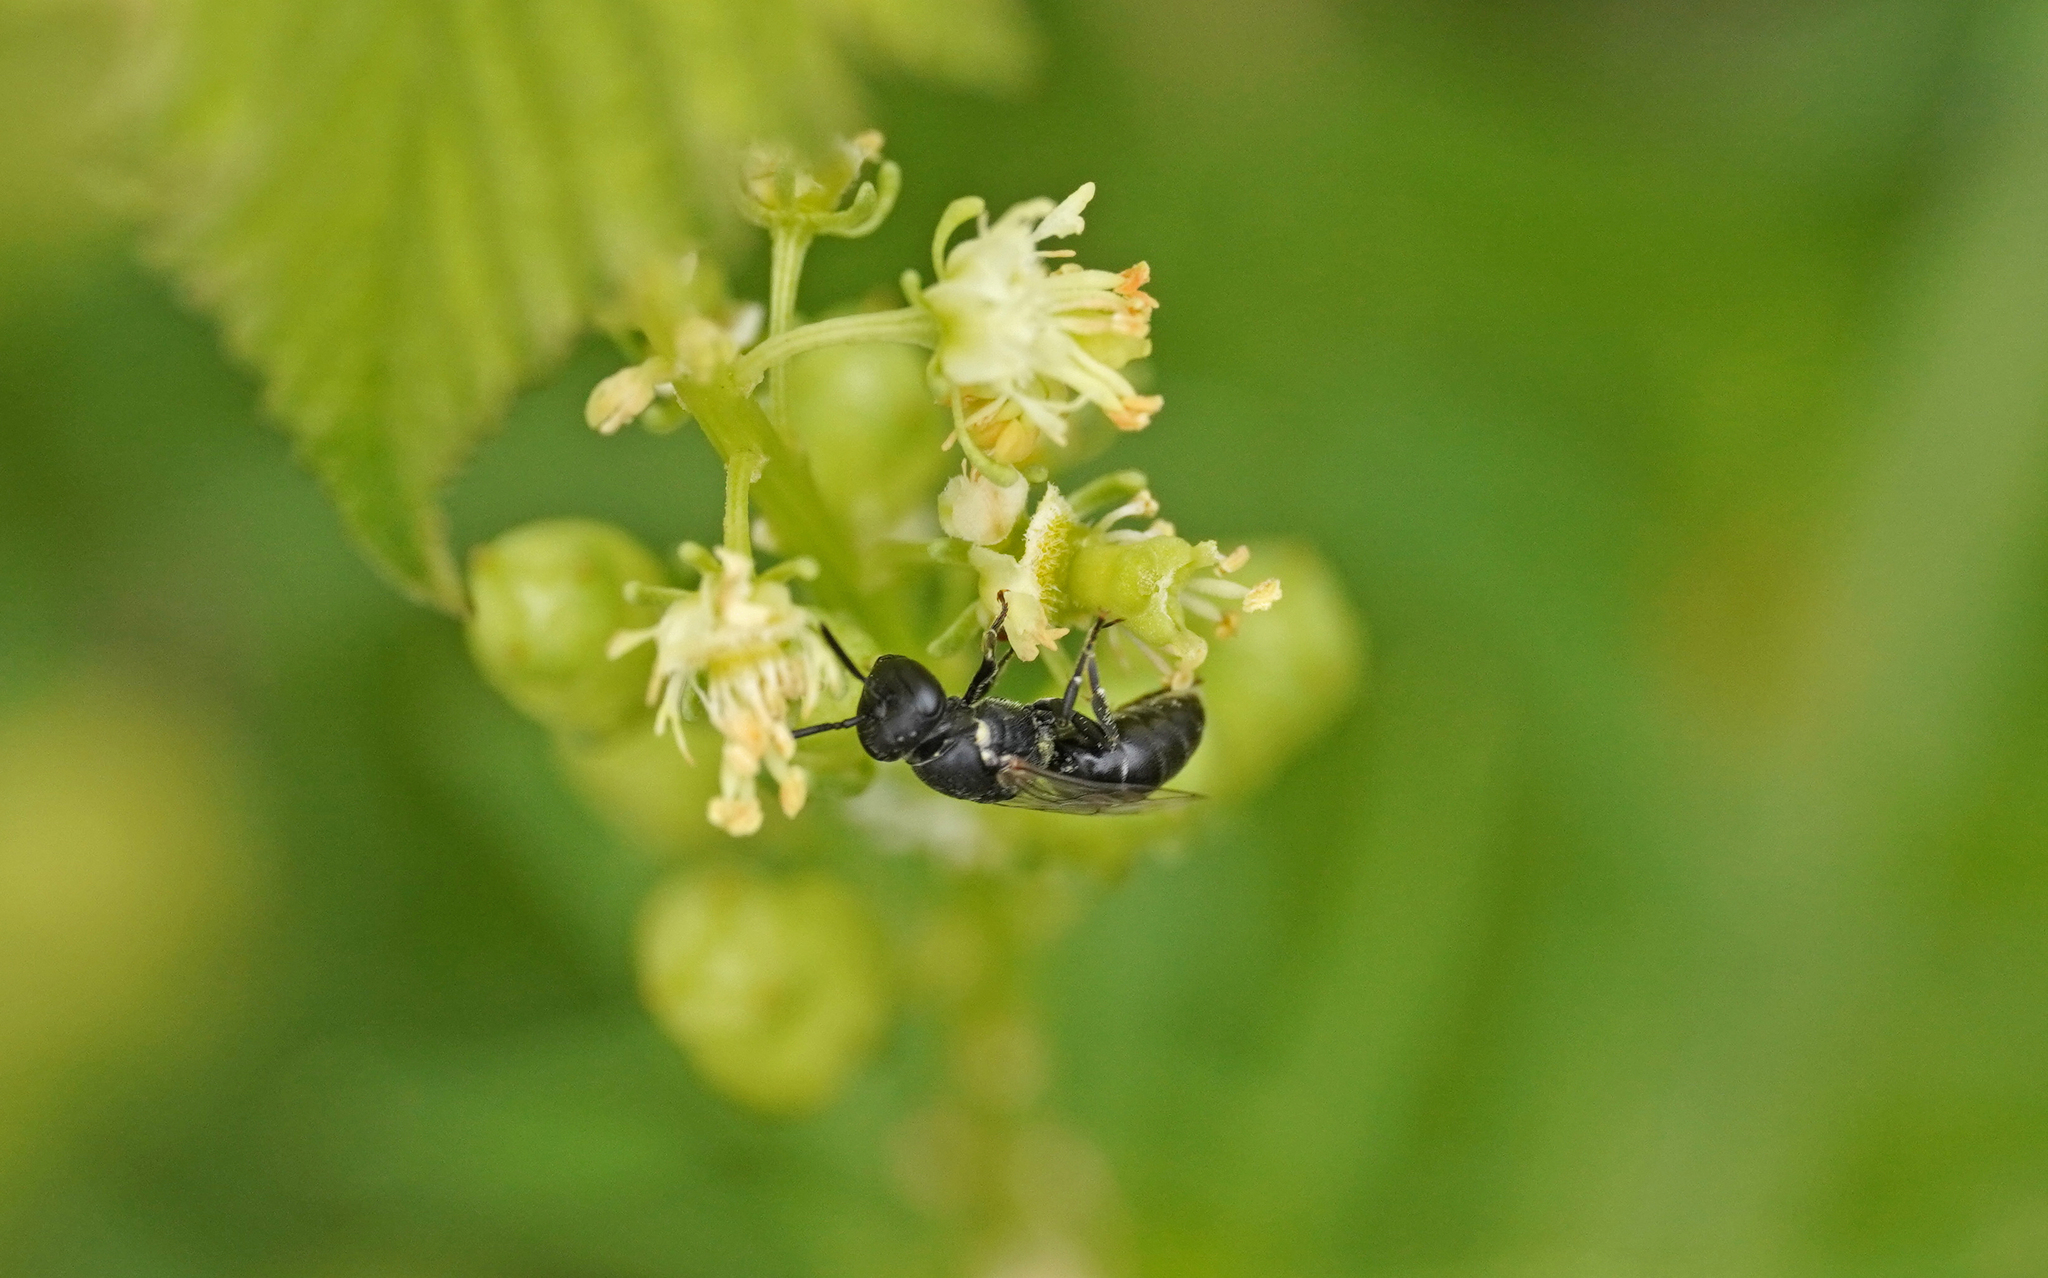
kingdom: Animalia
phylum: Arthropoda
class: Insecta
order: Hymenoptera
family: Colletidae
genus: Hylaeus
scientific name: Hylaeus signatus
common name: Large yellow-face bee
